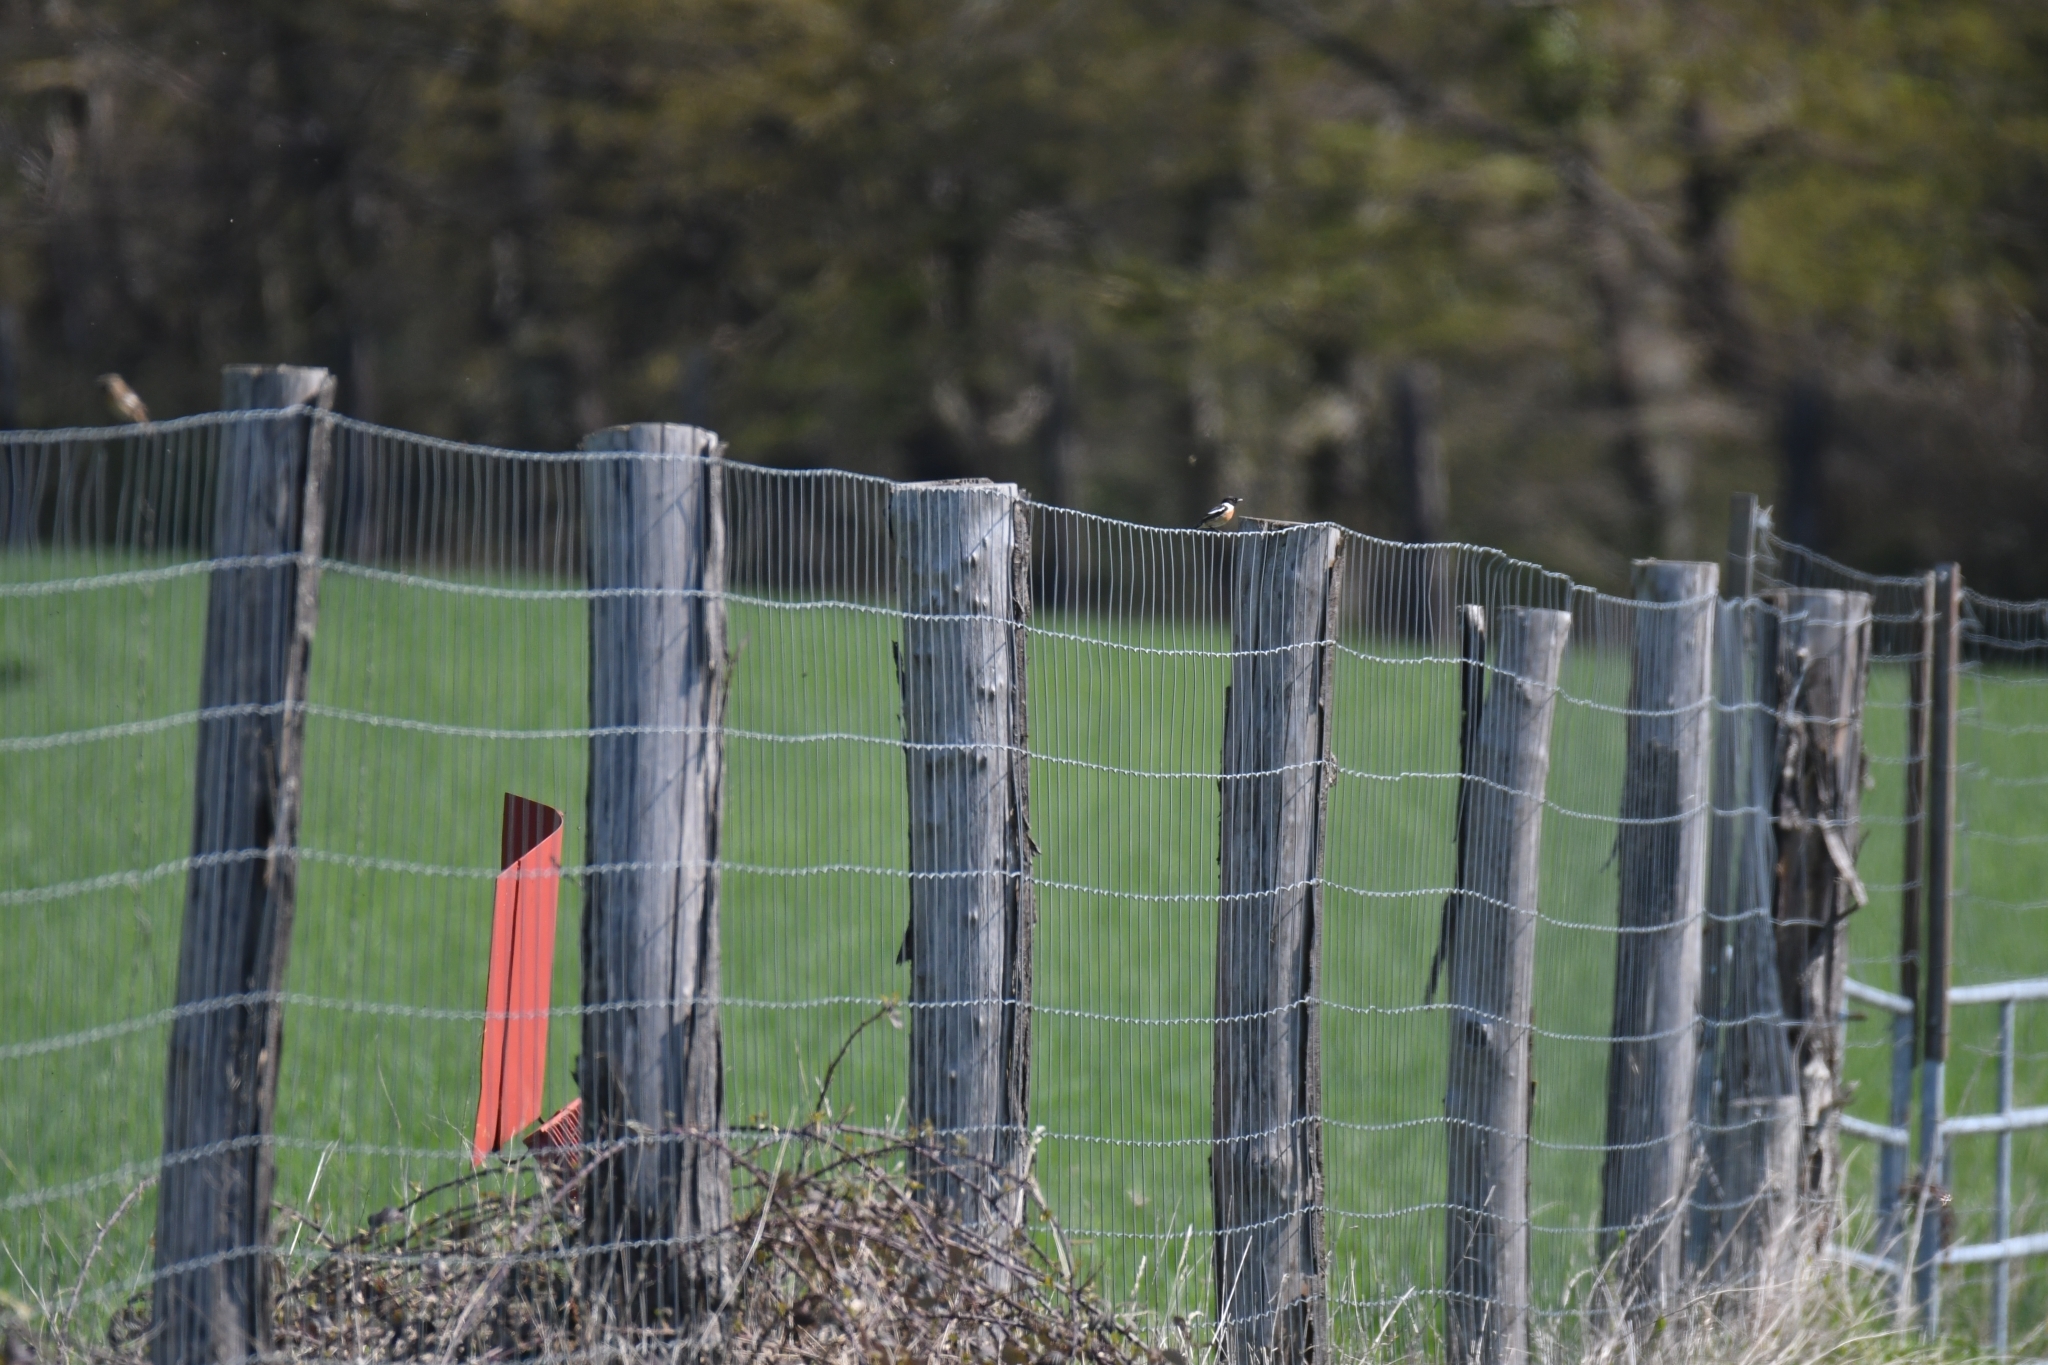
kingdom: Animalia
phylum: Chordata
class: Aves
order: Passeriformes
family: Muscicapidae
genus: Saxicola
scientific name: Saxicola rubicola
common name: European stonechat
